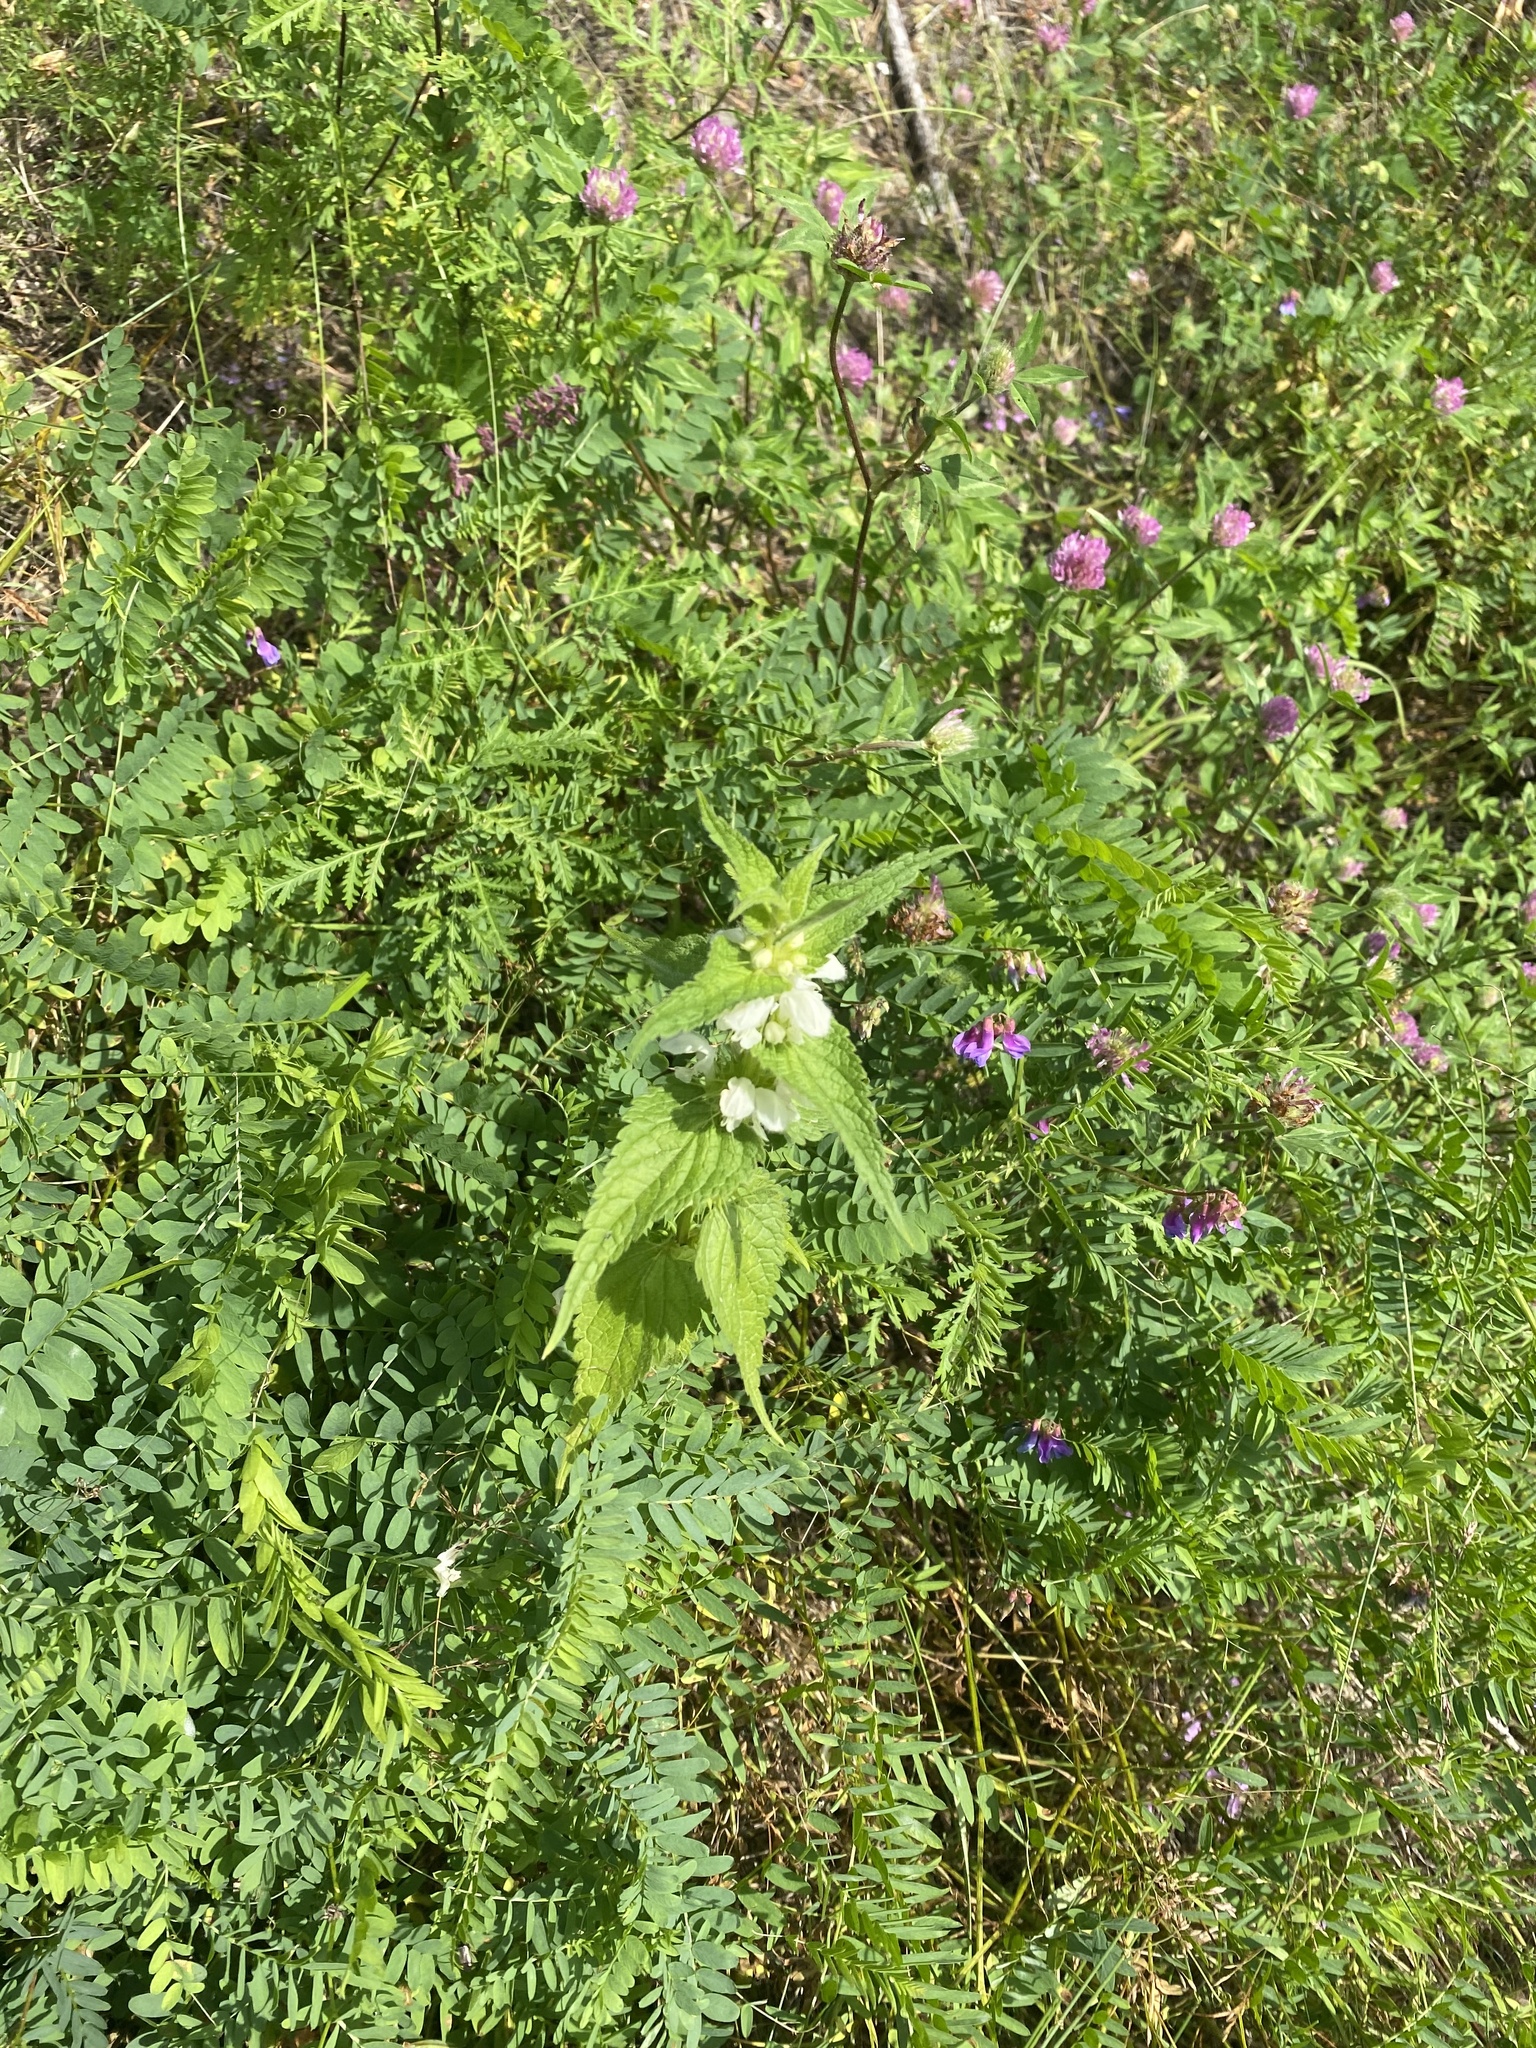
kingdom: Plantae
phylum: Tracheophyta
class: Magnoliopsida
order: Lamiales
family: Lamiaceae
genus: Lamium
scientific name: Lamium album
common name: White dead-nettle
